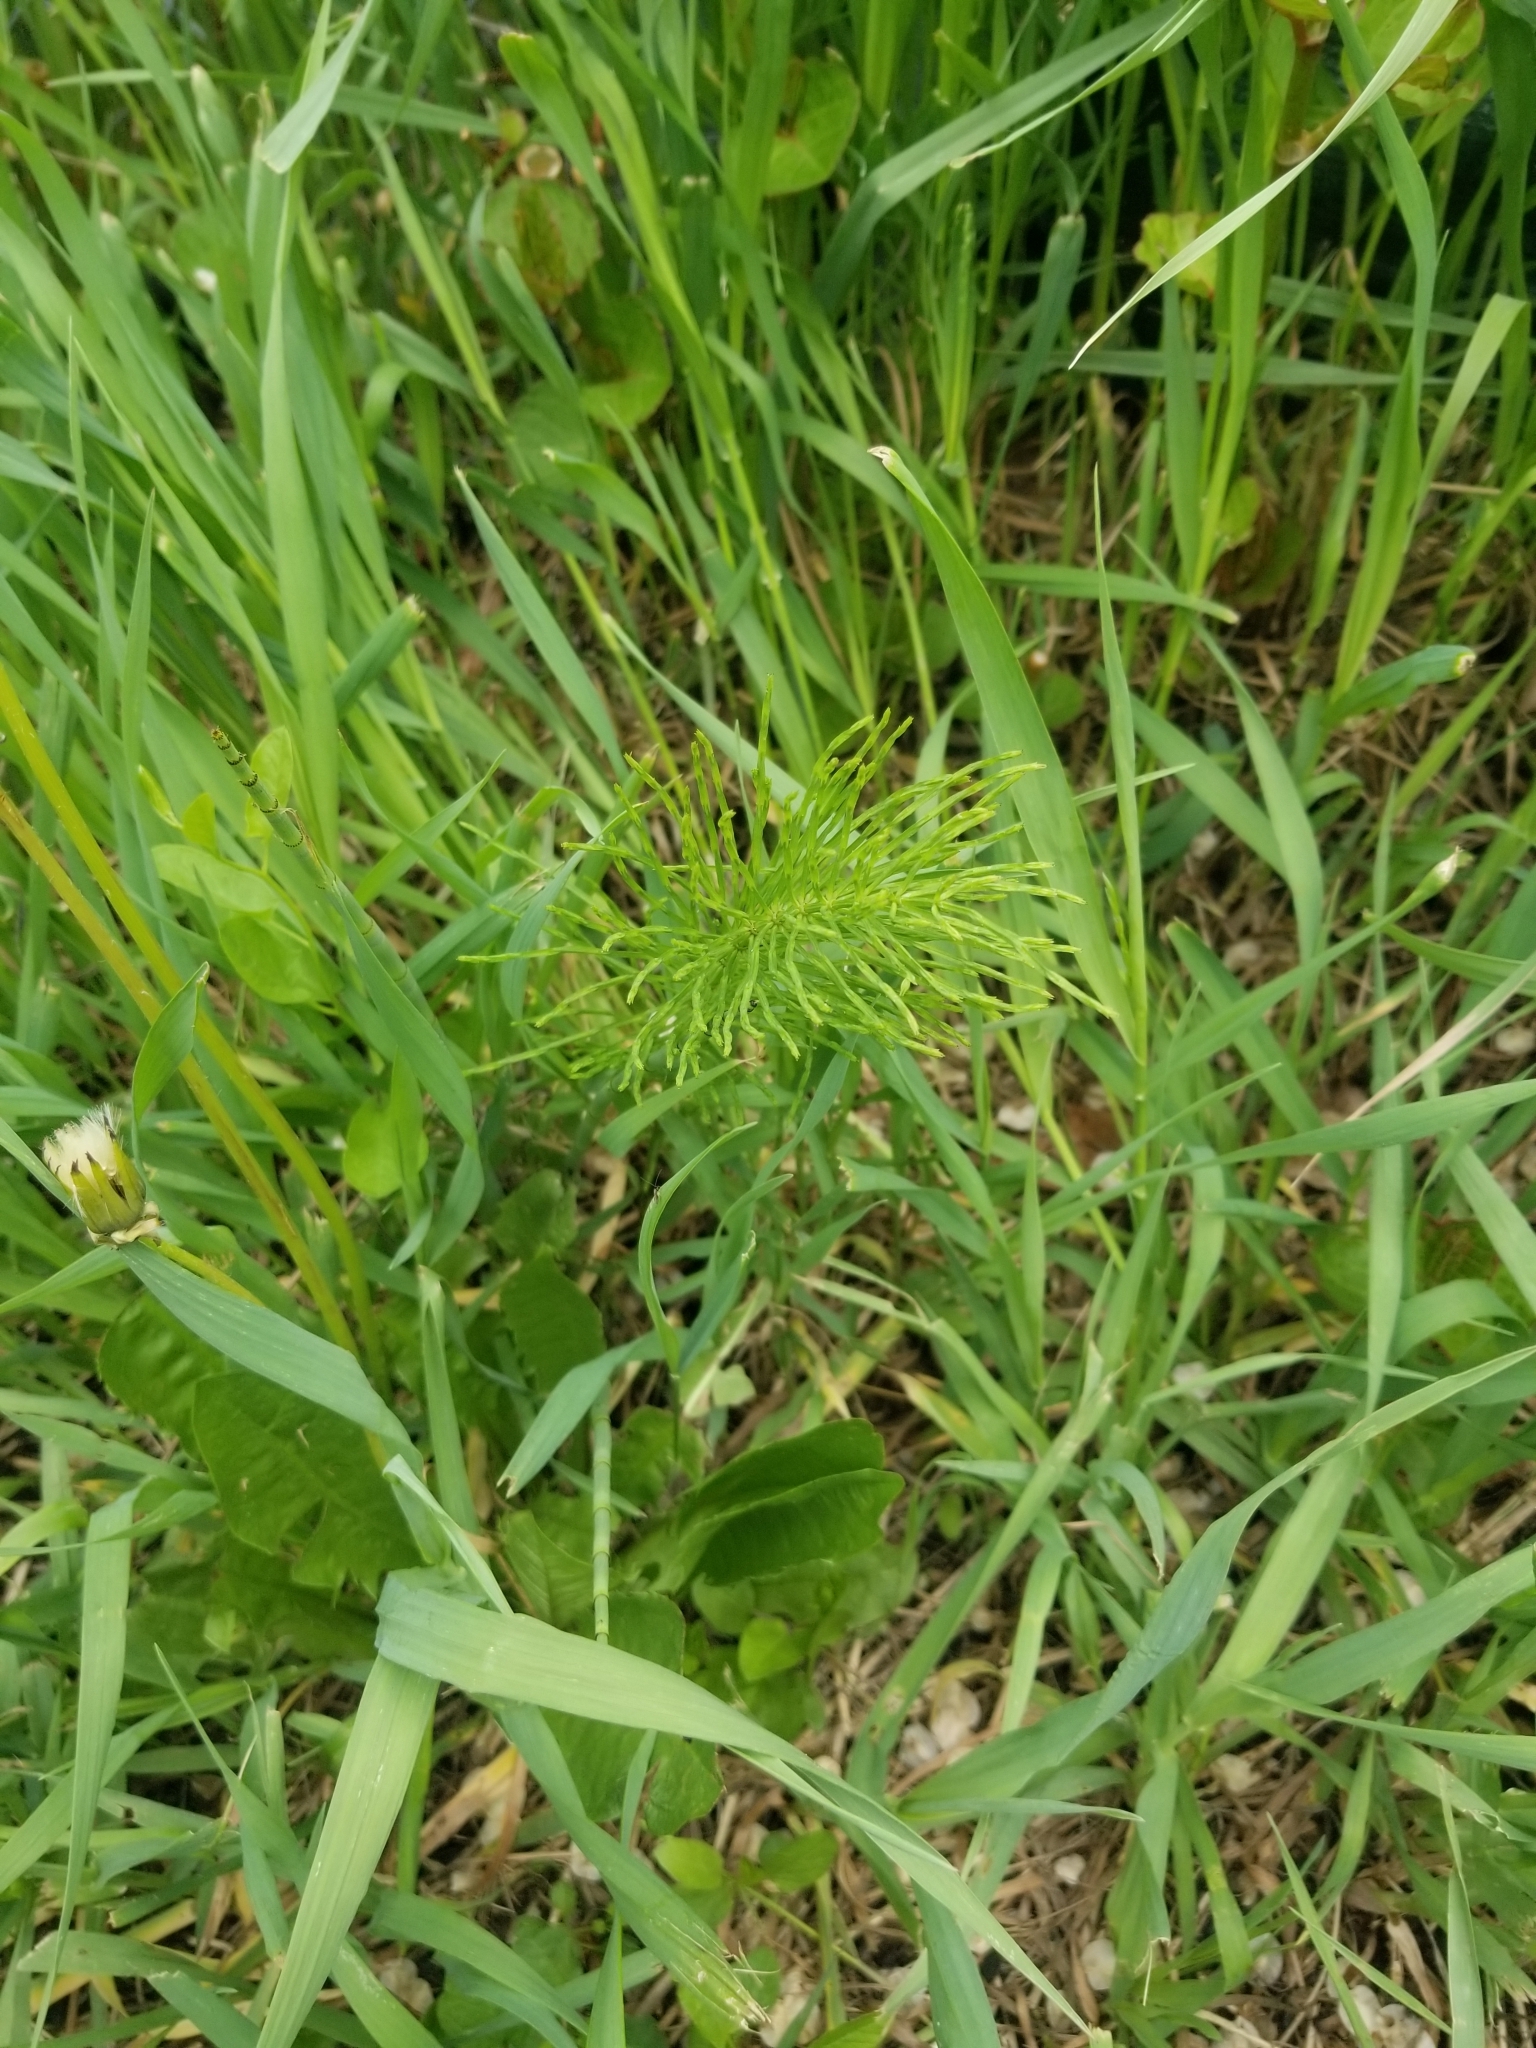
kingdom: Plantae
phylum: Tracheophyta
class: Polypodiopsida
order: Equisetales
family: Equisetaceae
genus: Equisetum
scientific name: Equisetum arvense
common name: Field horsetail
